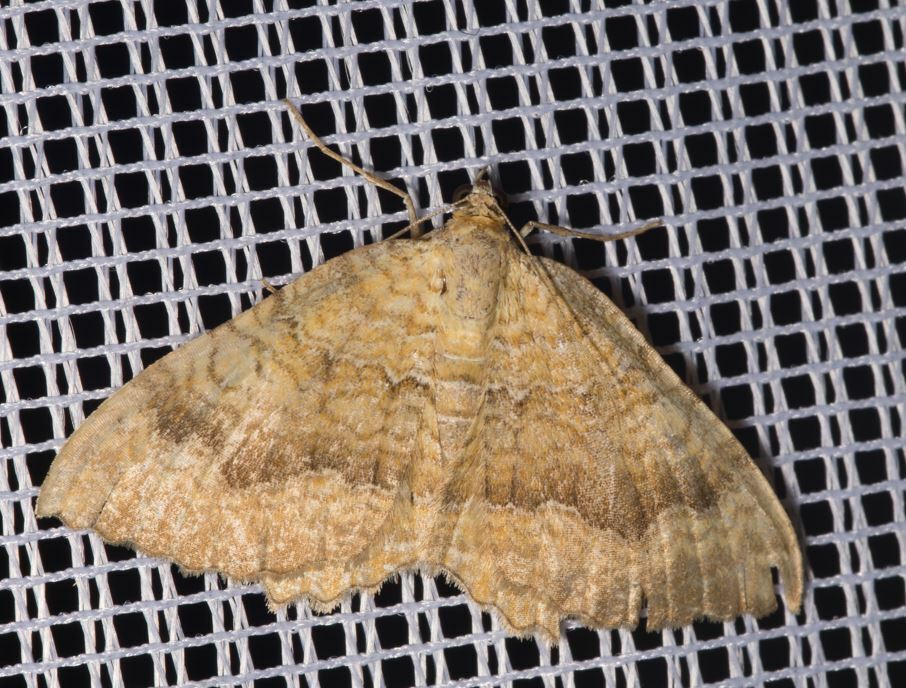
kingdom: Animalia
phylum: Arthropoda
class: Insecta
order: Lepidoptera
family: Geometridae
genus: Camptogramma
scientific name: Camptogramma bilineata
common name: Yellow shell
